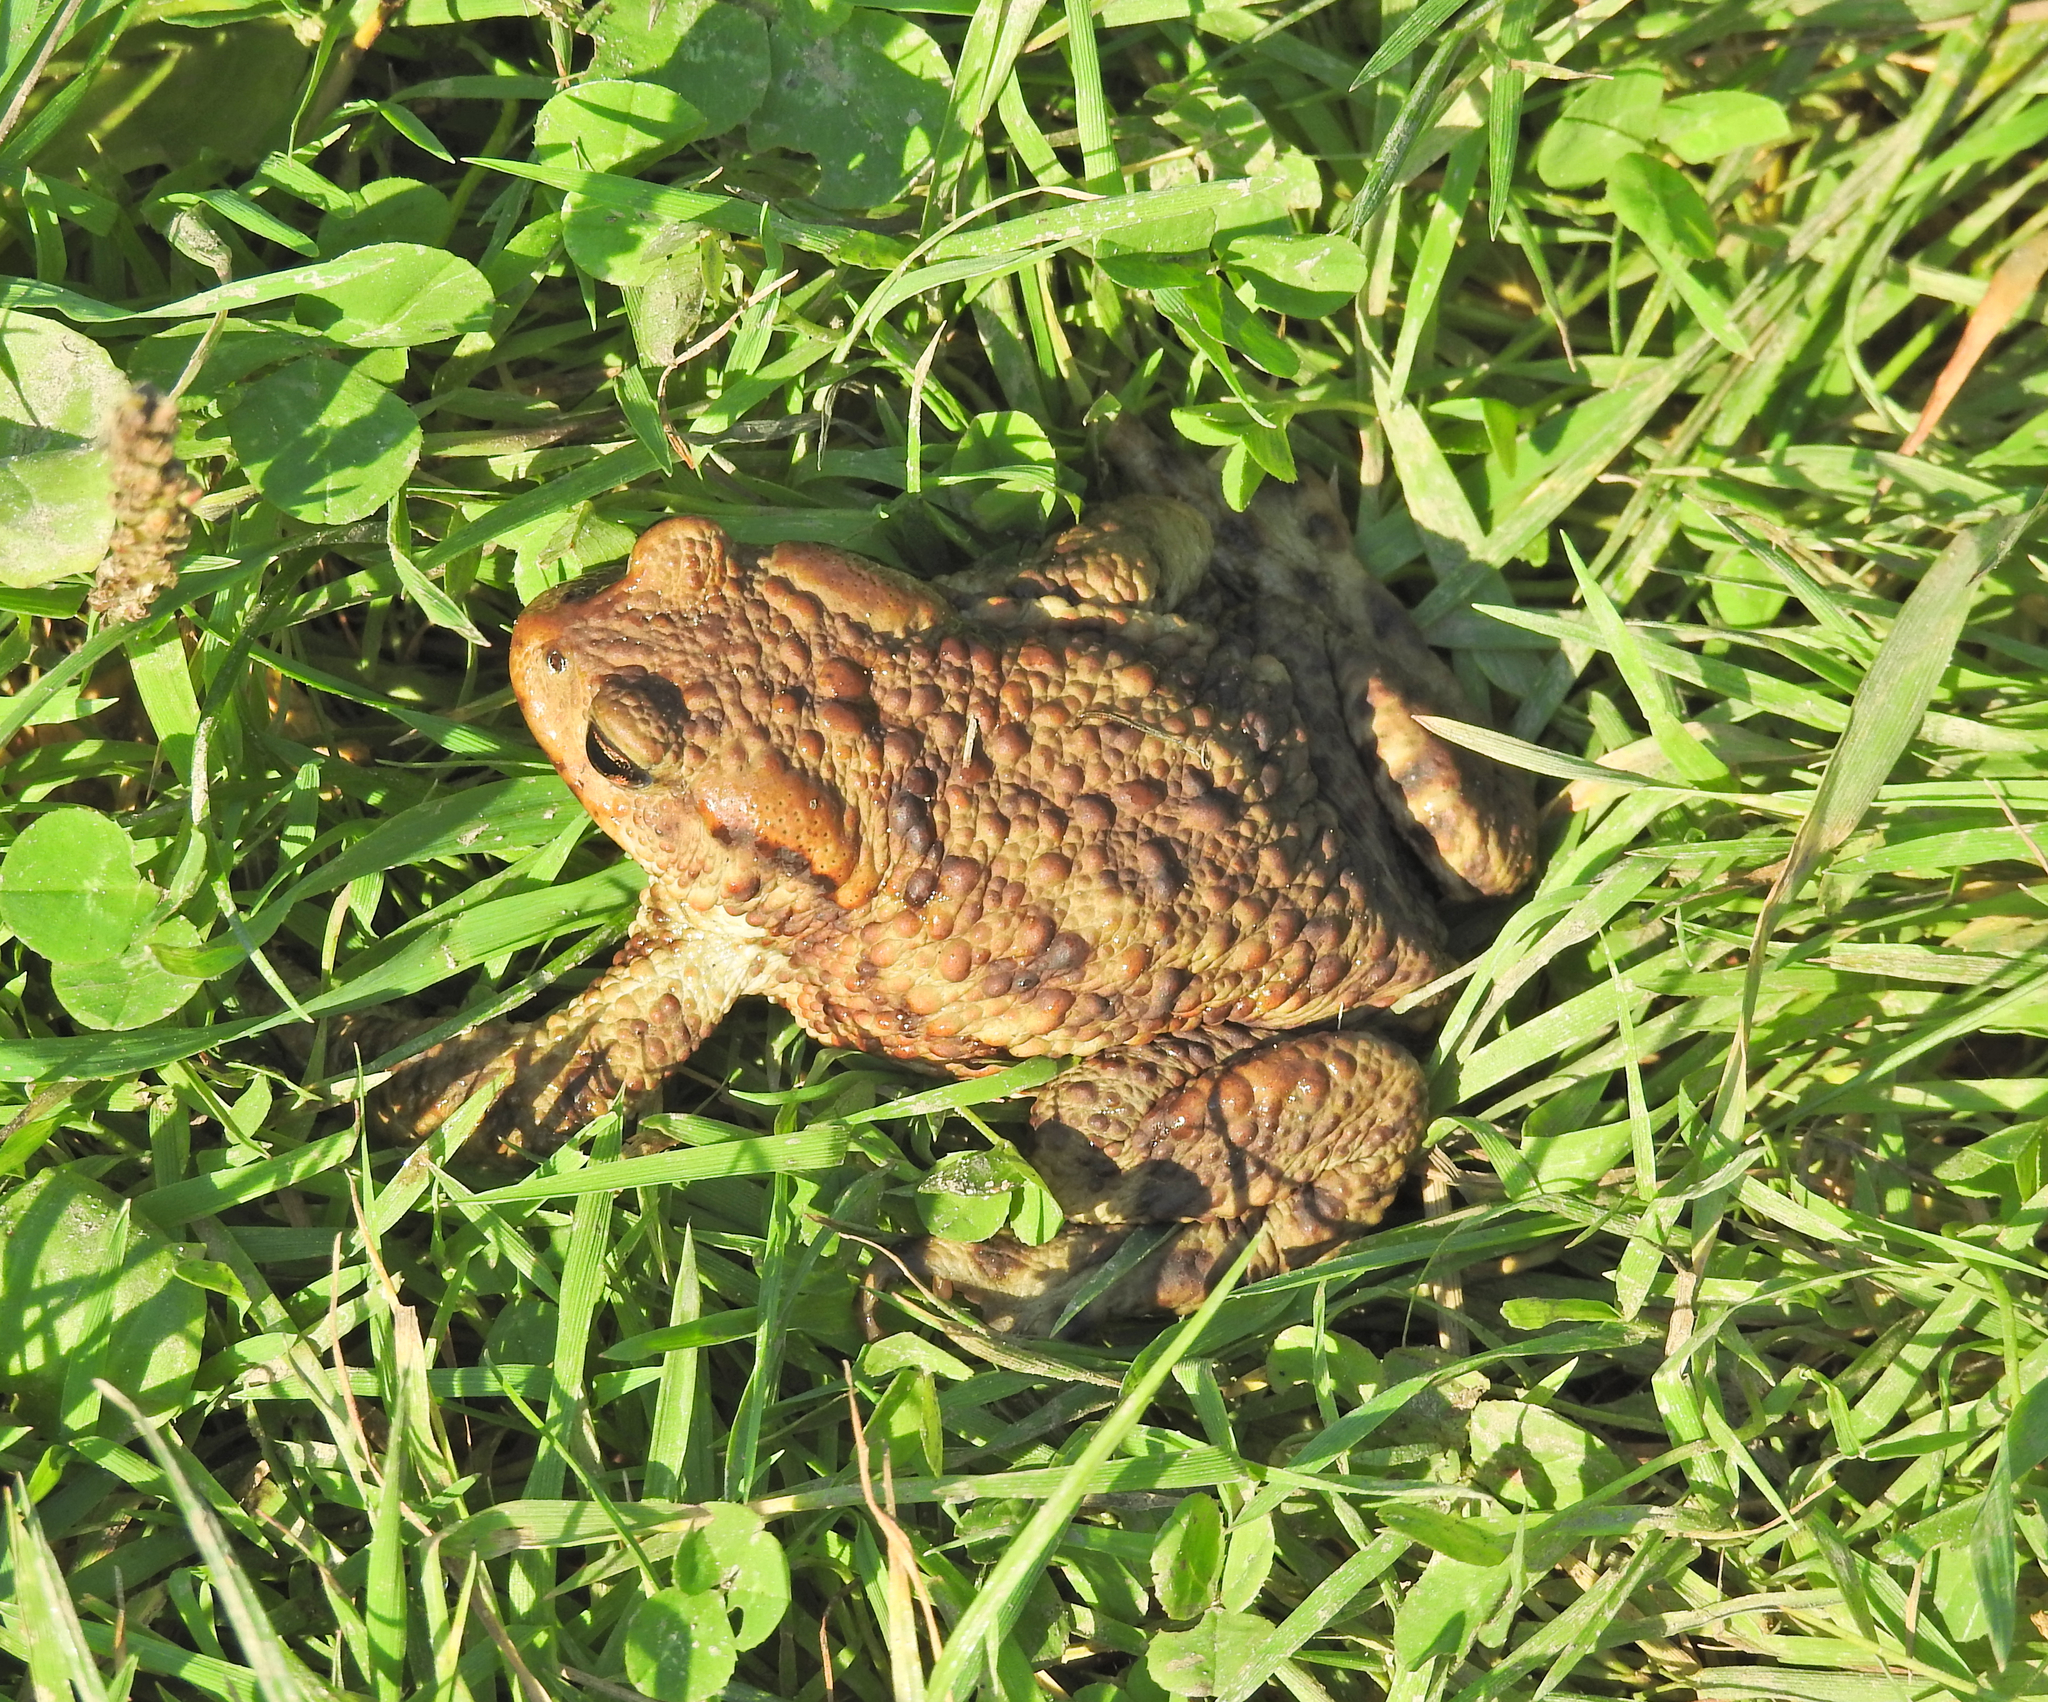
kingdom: Animalia
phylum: Chordata
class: Amphibia
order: Anura
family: Bufonidae
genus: Bufo
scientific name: Bufo bufo
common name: Common toad
